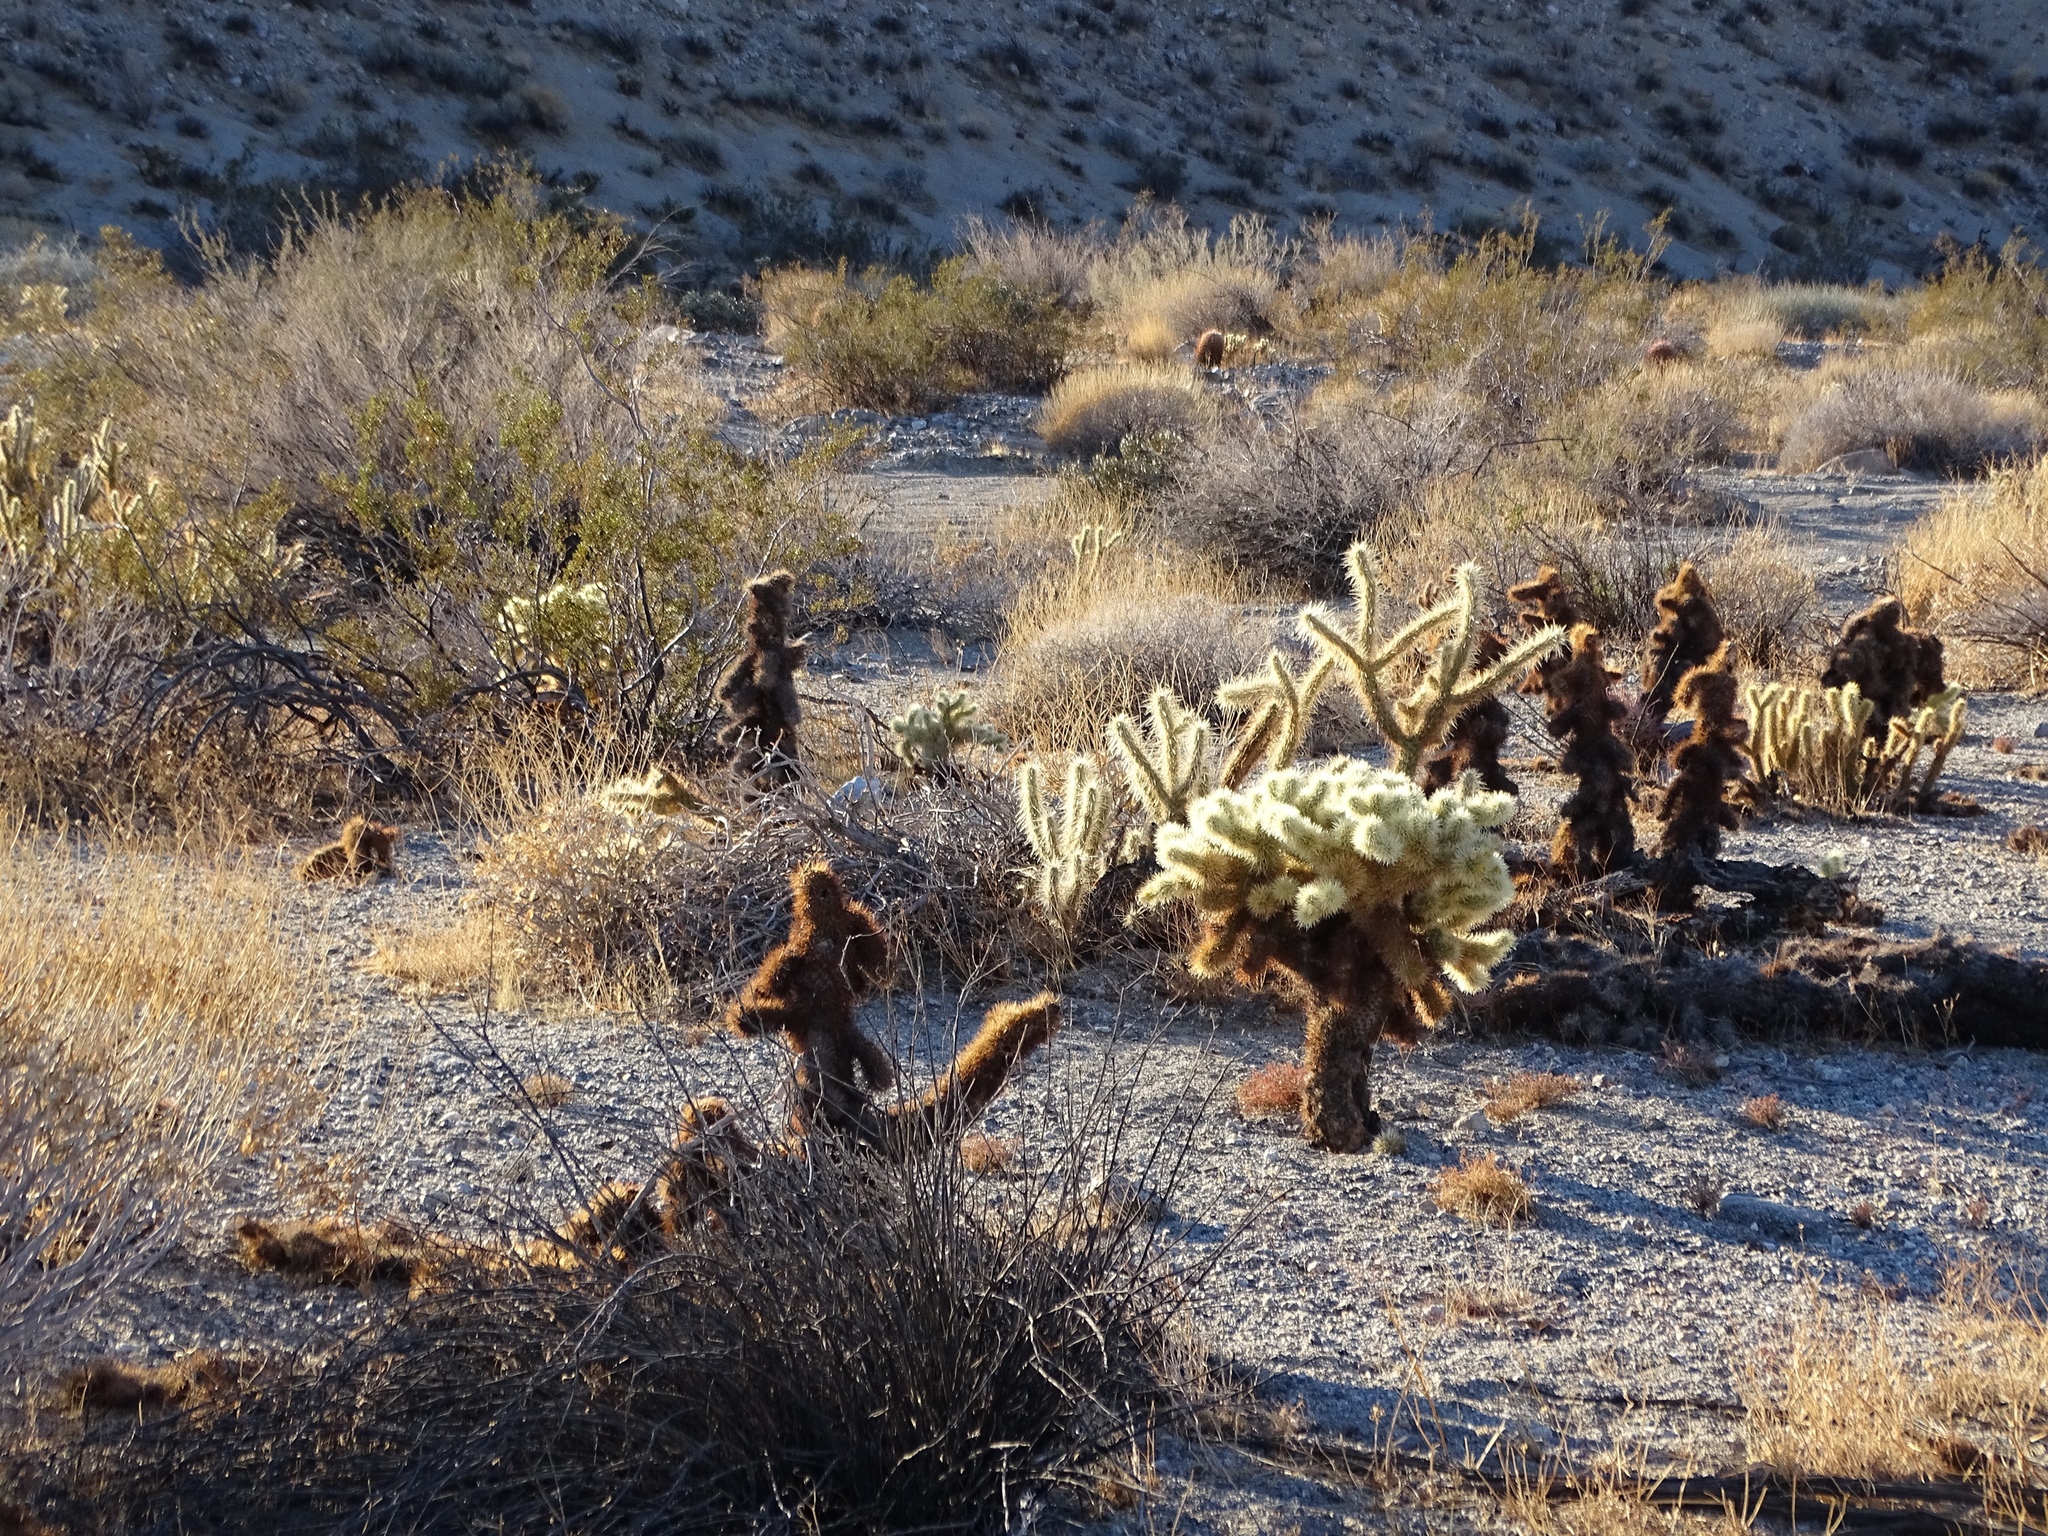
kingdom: Plantae
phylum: Tracheophyta
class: Magnoliopsida
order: Caryophyllales
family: Cactaceae
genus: Cylindropuntia
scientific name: Cylindropuntia fosbergii
